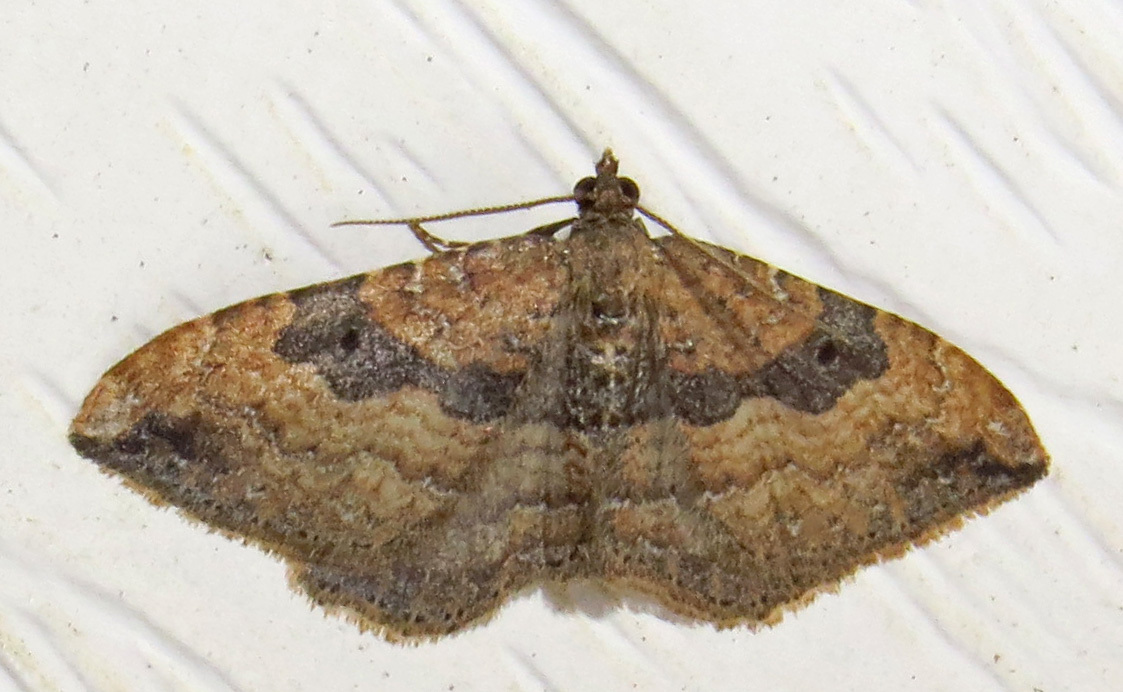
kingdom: Animalia
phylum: Arthropoda
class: Insecta
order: Lepidoptera
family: Geometridae
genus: Orthonama
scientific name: Orthonama obstipata
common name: The gem
